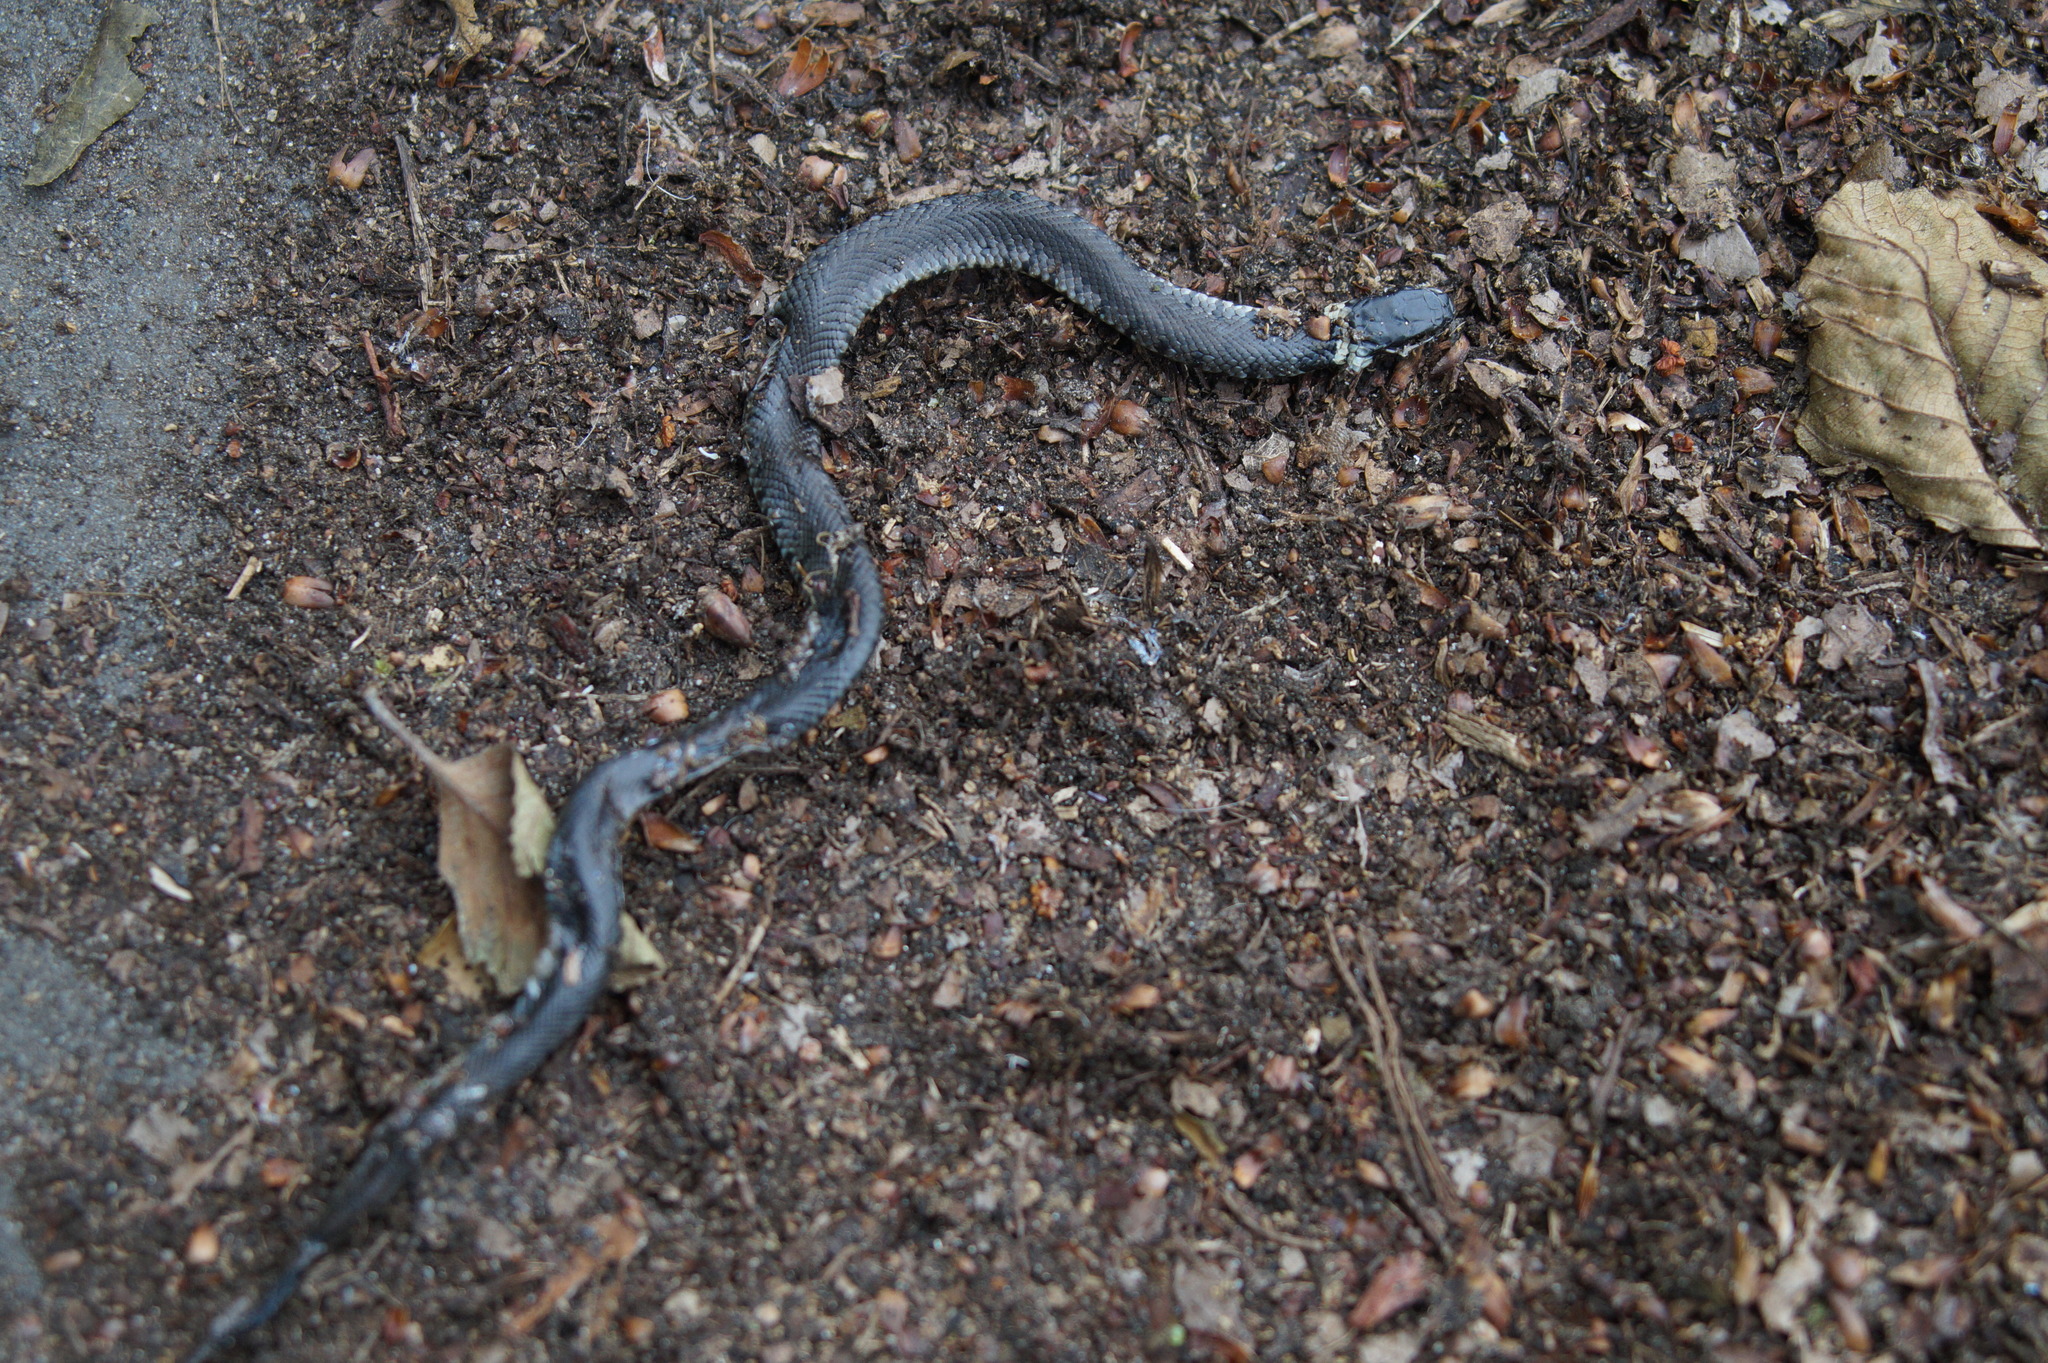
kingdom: Animalia
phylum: Chordata
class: Squamata
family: Colubridae
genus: Natrix
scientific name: Natrix helvetica
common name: Banded grass snake
